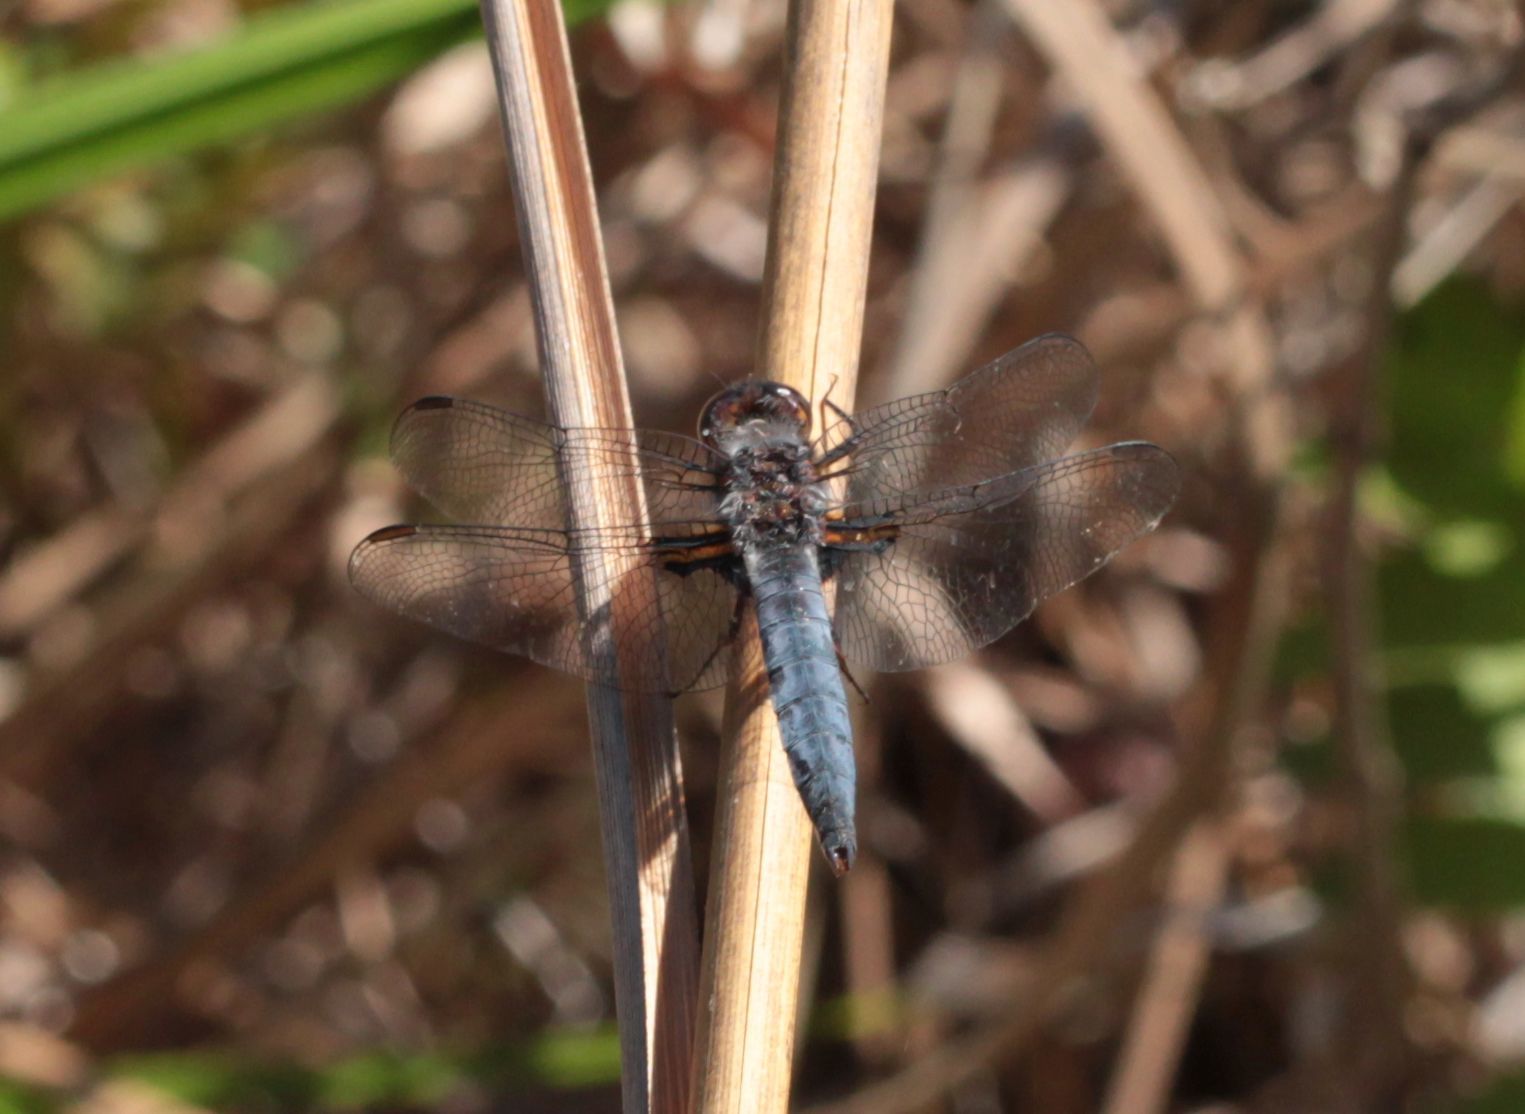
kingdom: Animalia
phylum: Arthropoda
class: Insecta
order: Odonata
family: Libellulidae
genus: Ladona
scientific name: Ladona deplanata
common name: Blue corporal
